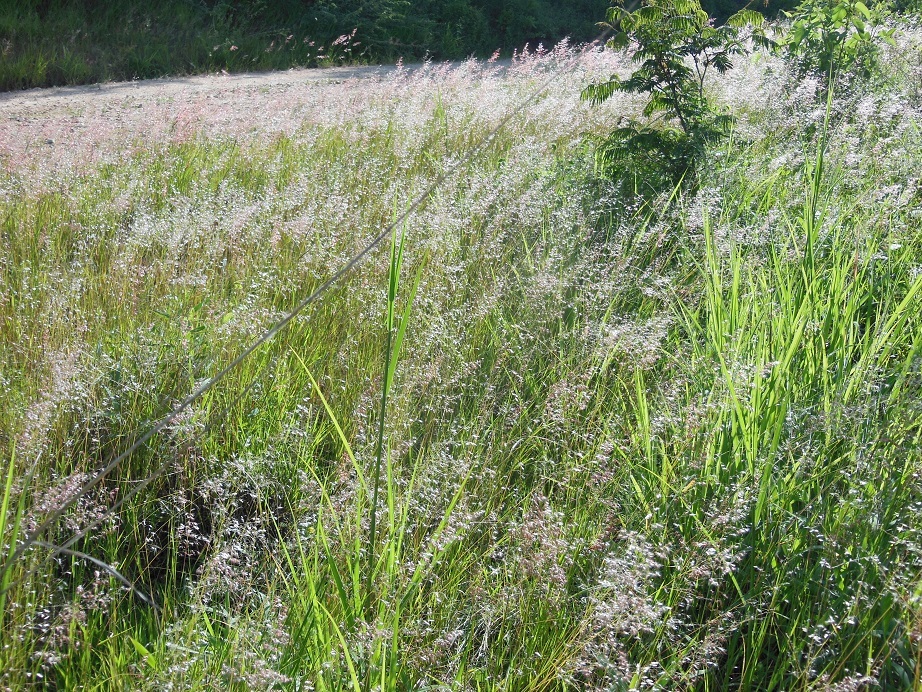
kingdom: Plantae
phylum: Tracheophyta
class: Liliopsida
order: Poales
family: Poaceae
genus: Melinis
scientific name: Melinis repens
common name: Rose natal grass
